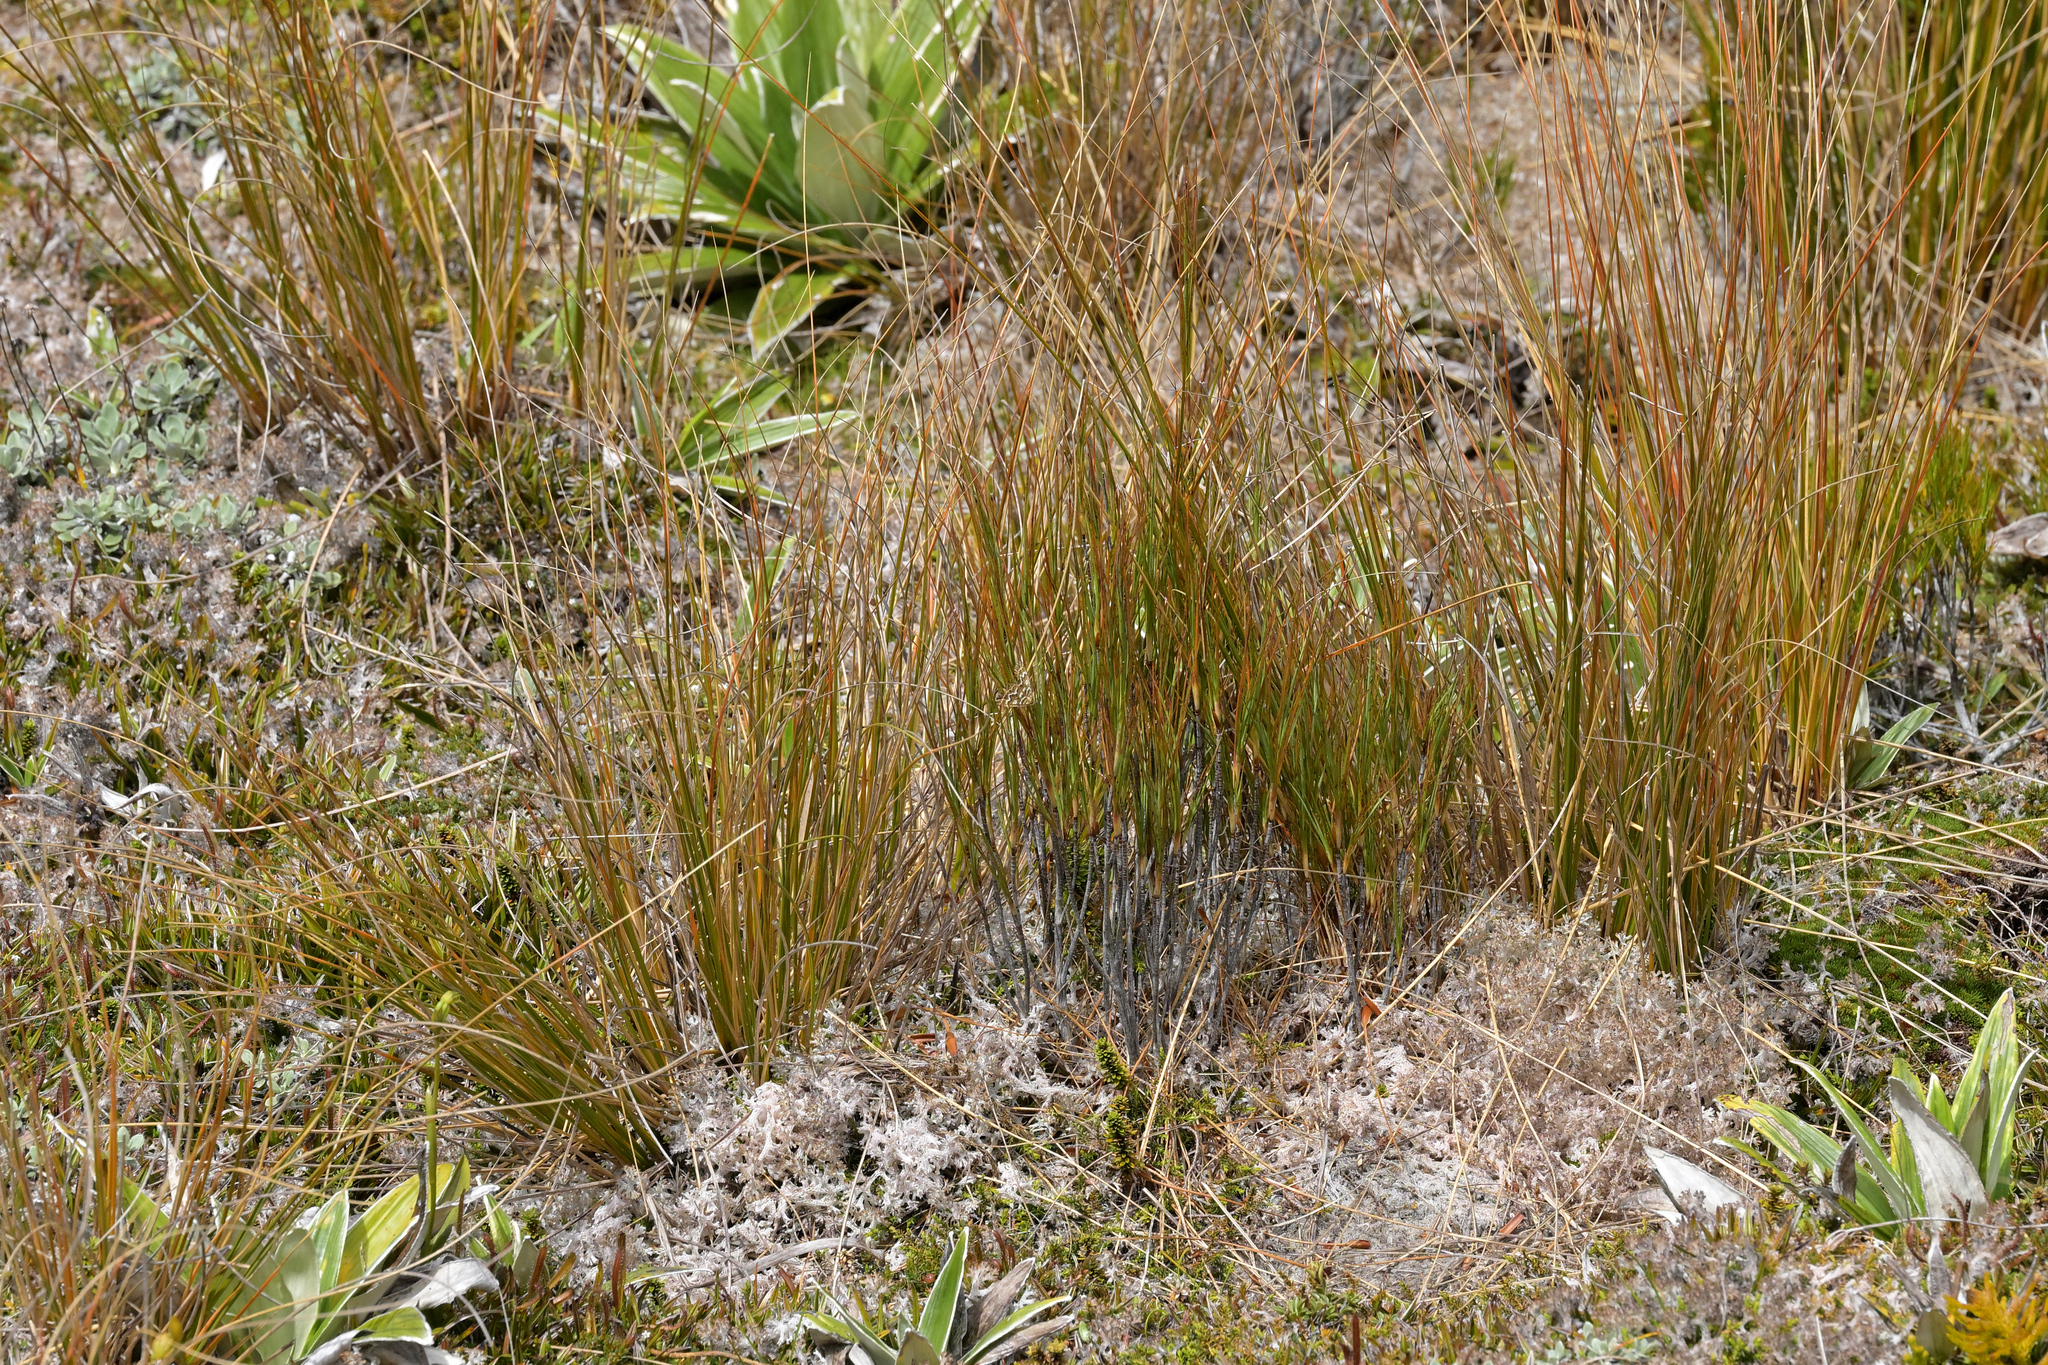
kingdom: Animalia
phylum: Arthropoda
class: Insecta
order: Lepidoptera
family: Geometridae
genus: Asaphodes
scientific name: Asaphodes clarata
